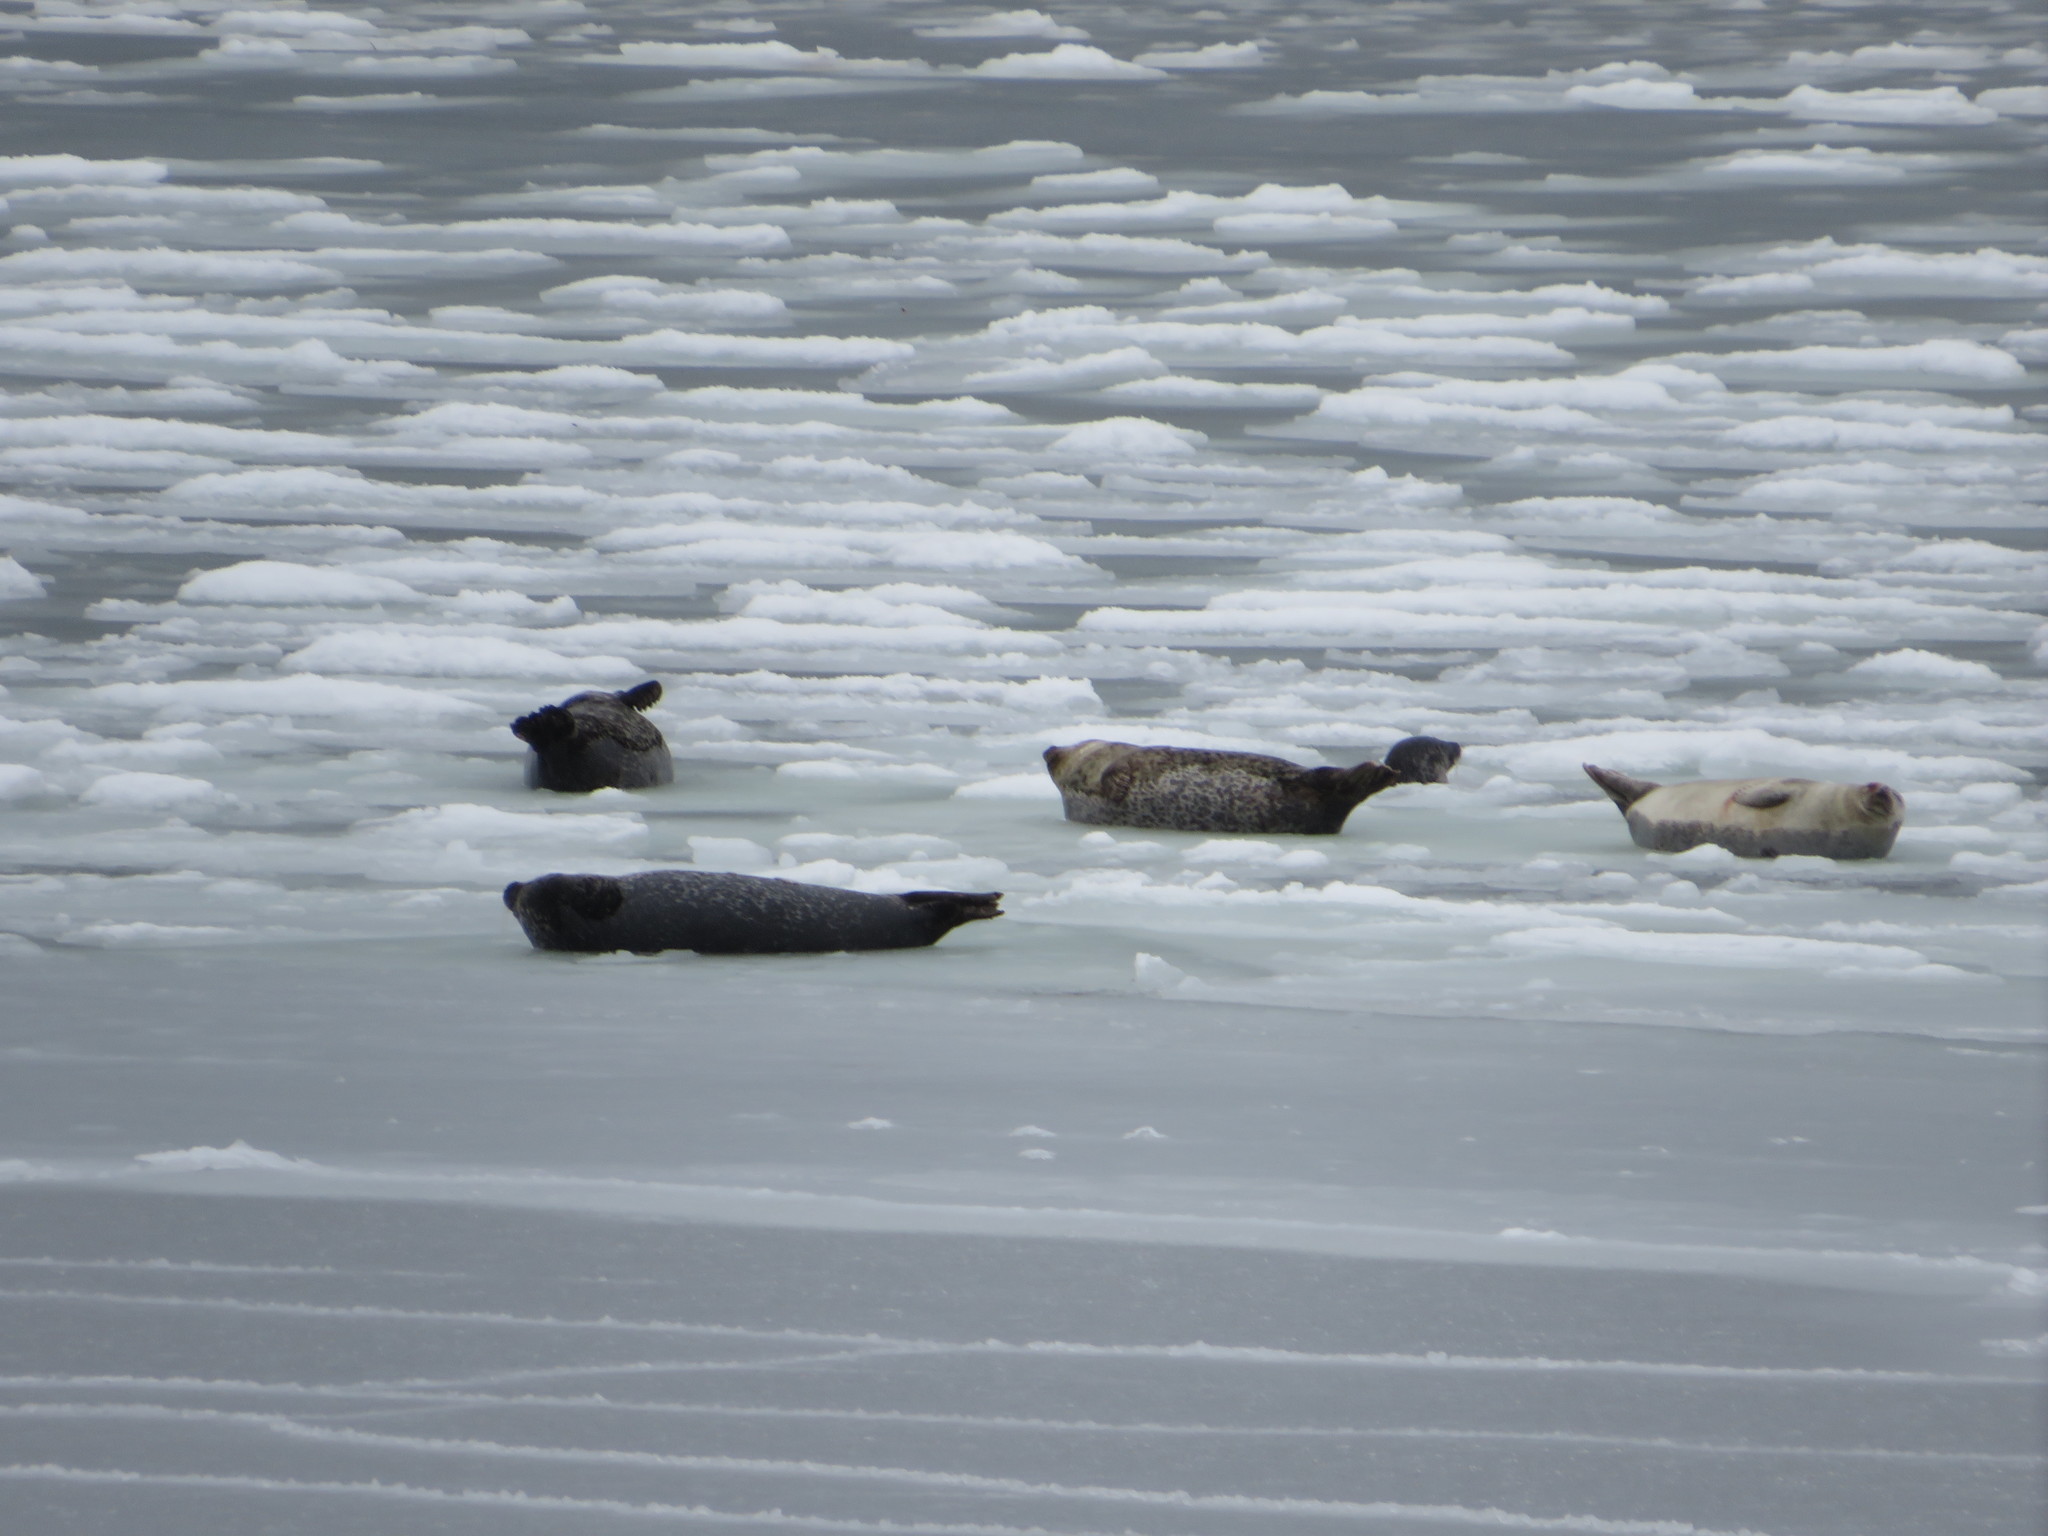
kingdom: Animalia
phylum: Chordata
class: Mammalia
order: Carnivora
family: Phocidae
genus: Phoca
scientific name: Phoca vitulina
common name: Harbor seal
